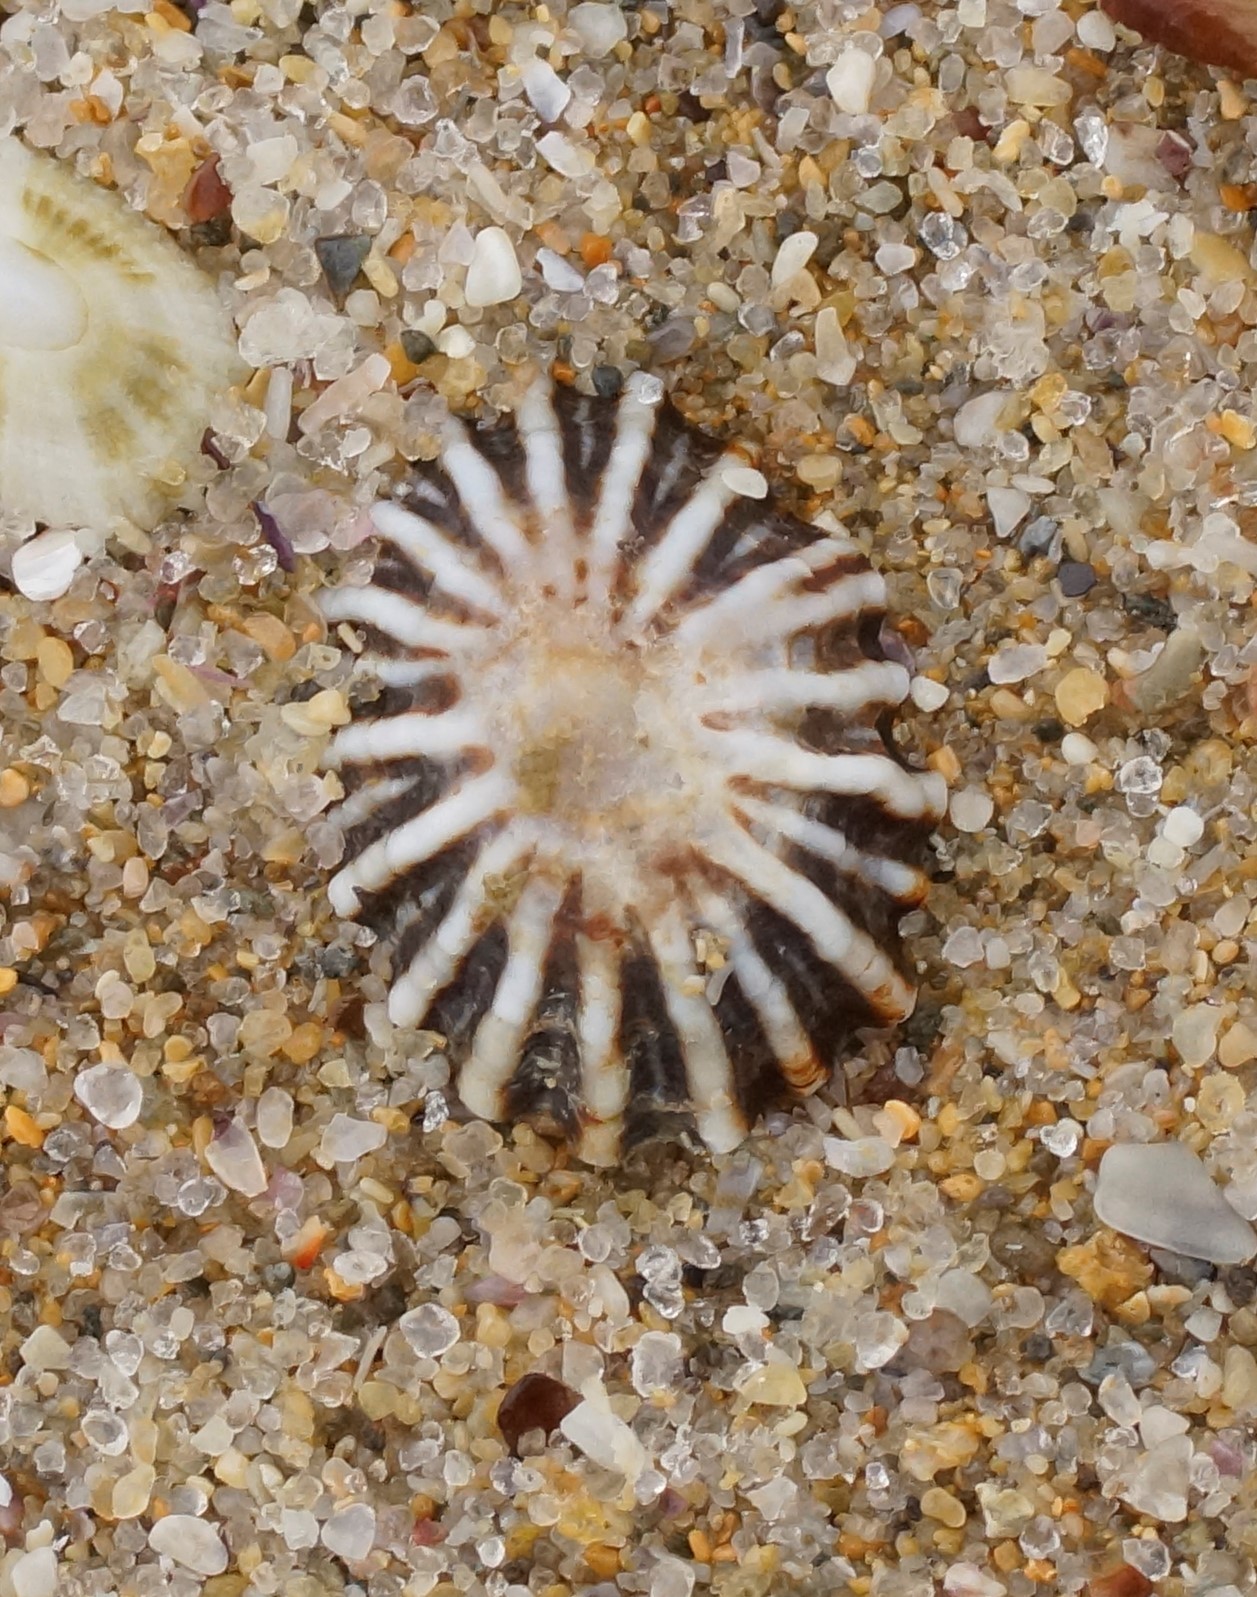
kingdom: Animalia
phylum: Mollusca
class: Gastropoda
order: Siphonariida
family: Siphonariidae
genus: Siphonaria
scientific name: Siphonaria diemenensis
